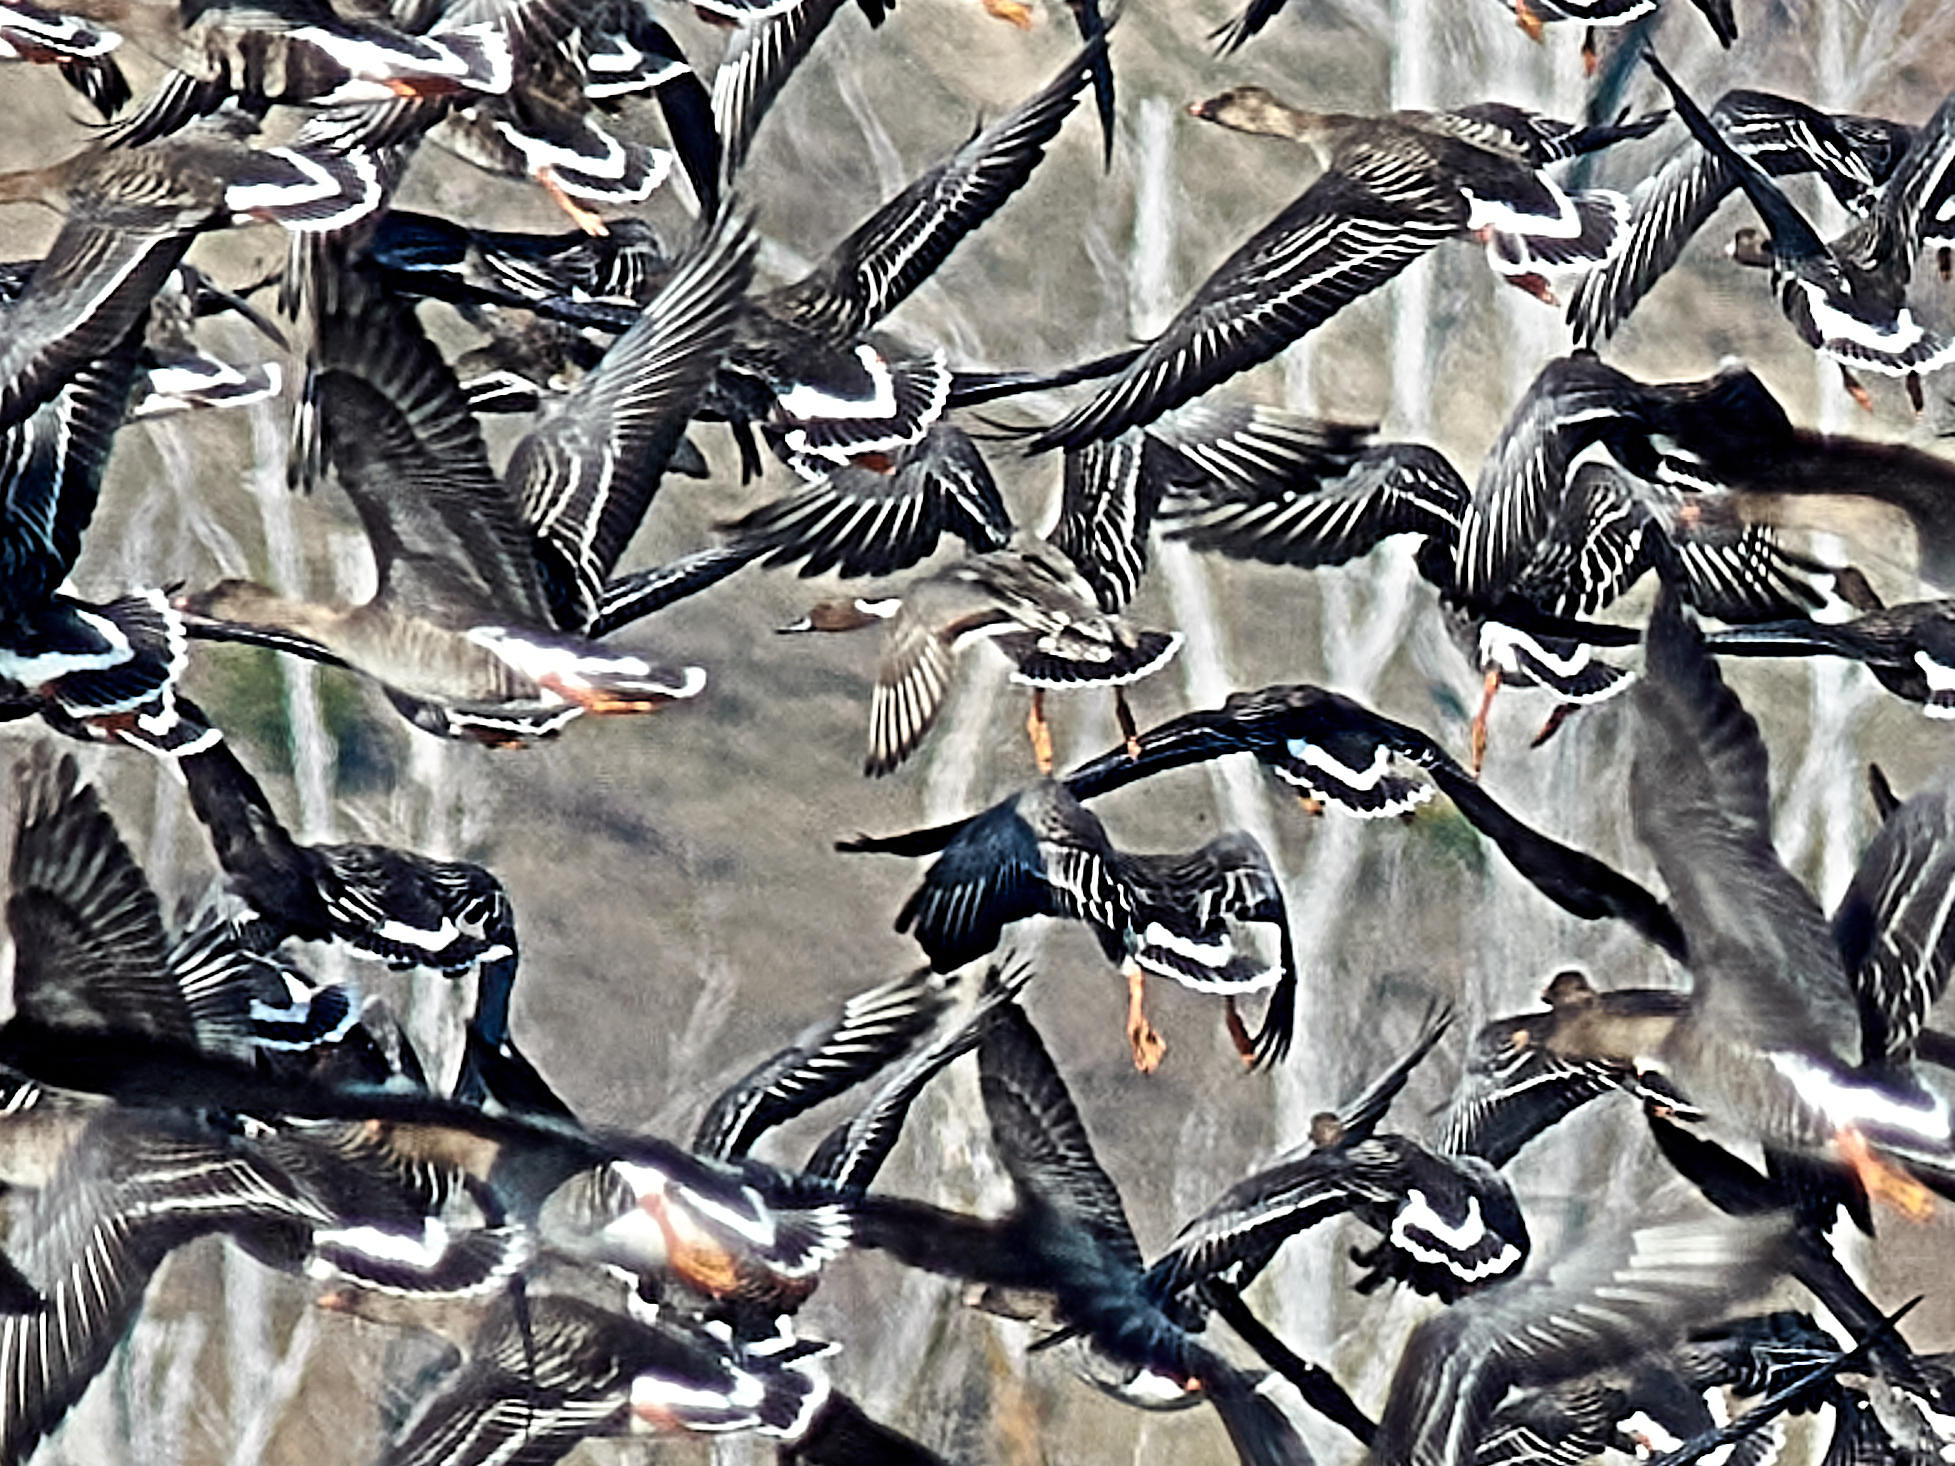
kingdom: Animalia
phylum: Chordata
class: Aves
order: Anseriformes
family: Anatidae
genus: Anas
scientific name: Anas acuta
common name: Northern pintail
